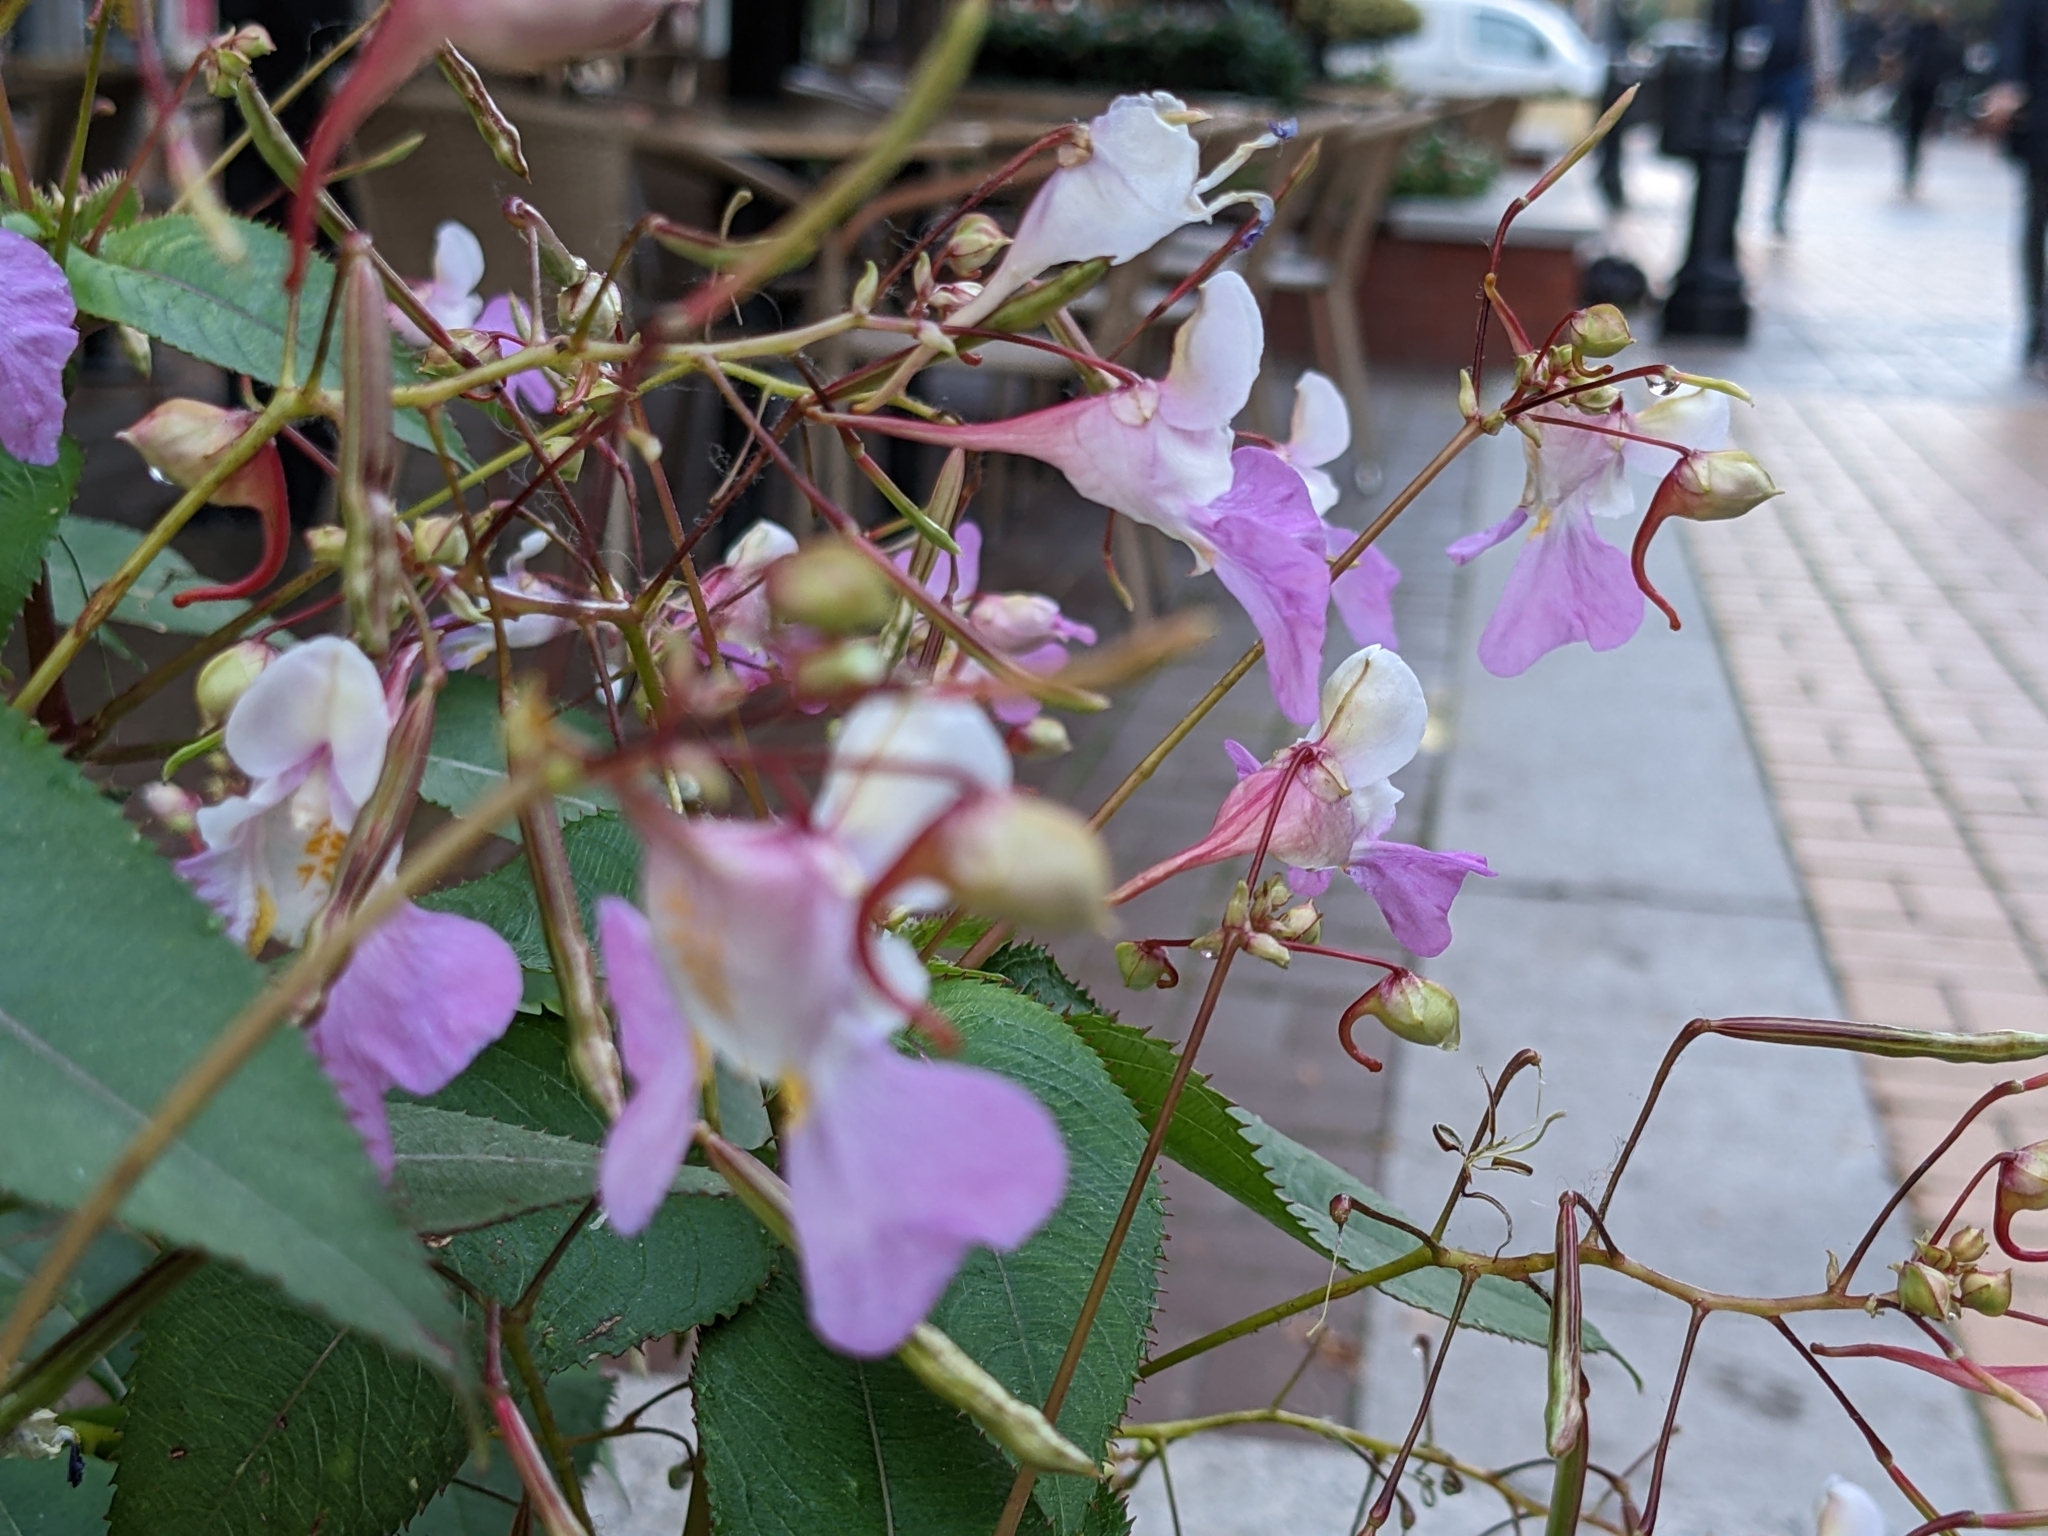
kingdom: Plantae
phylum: Tracheophyta
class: Magnoliopsida
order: Ericales
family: Balsaminaceae
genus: Impatiens
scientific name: Impatiens balfourii
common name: Balfour's touch-me-not
